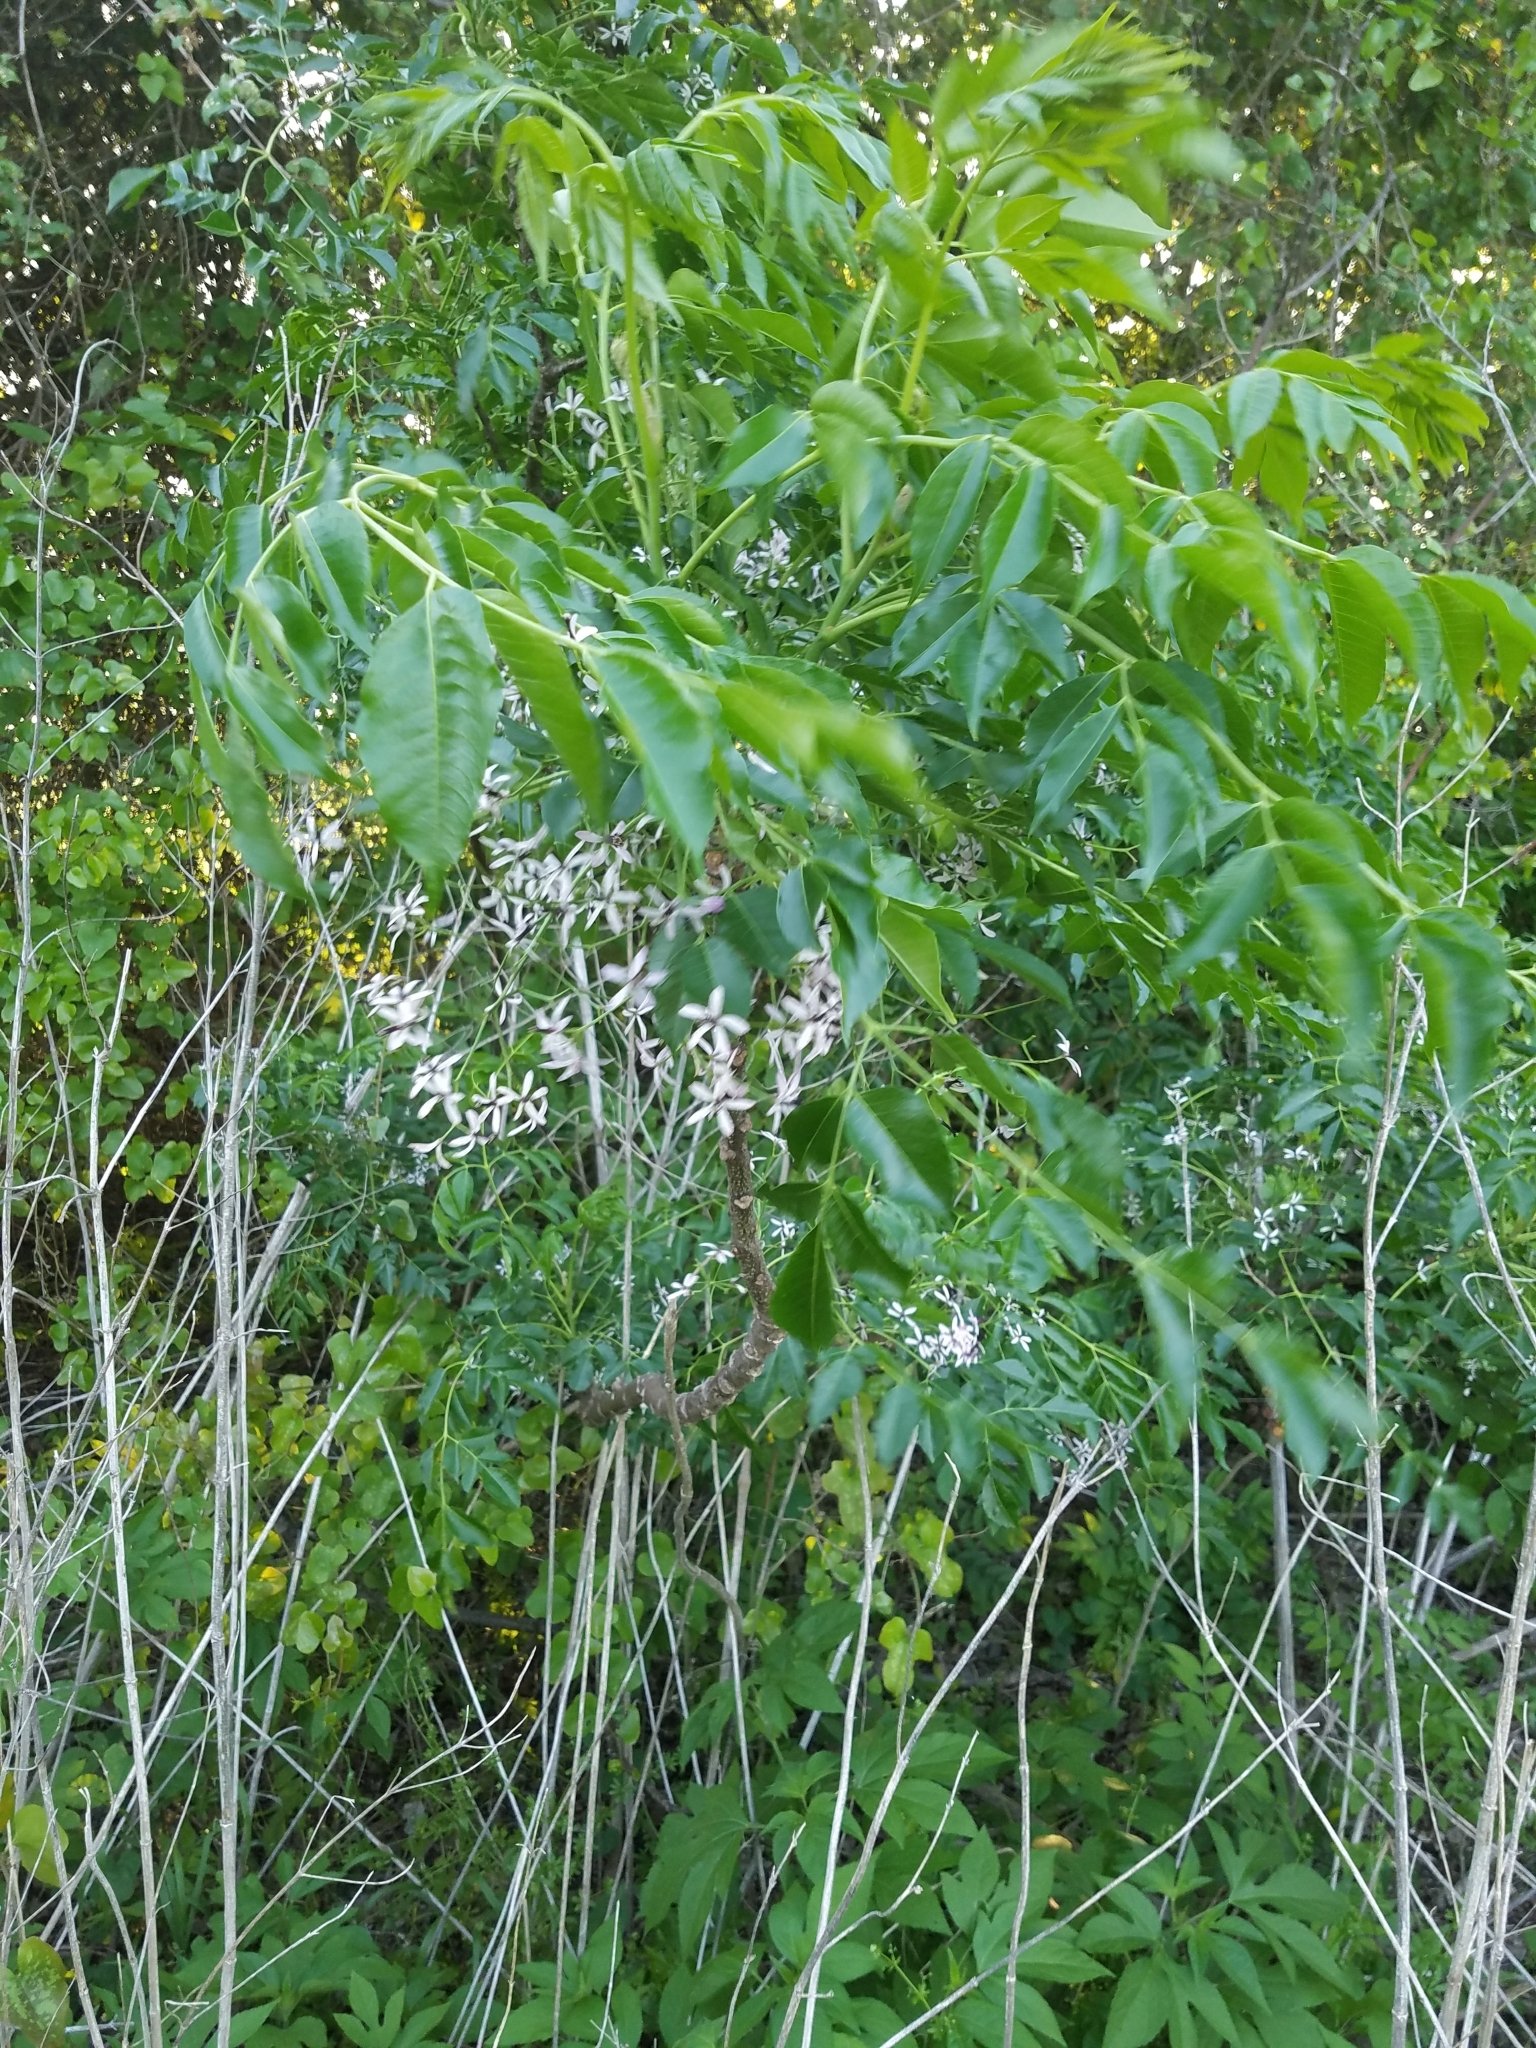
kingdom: Plantae
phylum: Tracheophyta
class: Magnoliopsida
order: Sapindales
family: Meliaceae
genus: Melia
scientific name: Melia azedarach
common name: Chinaberrytree
